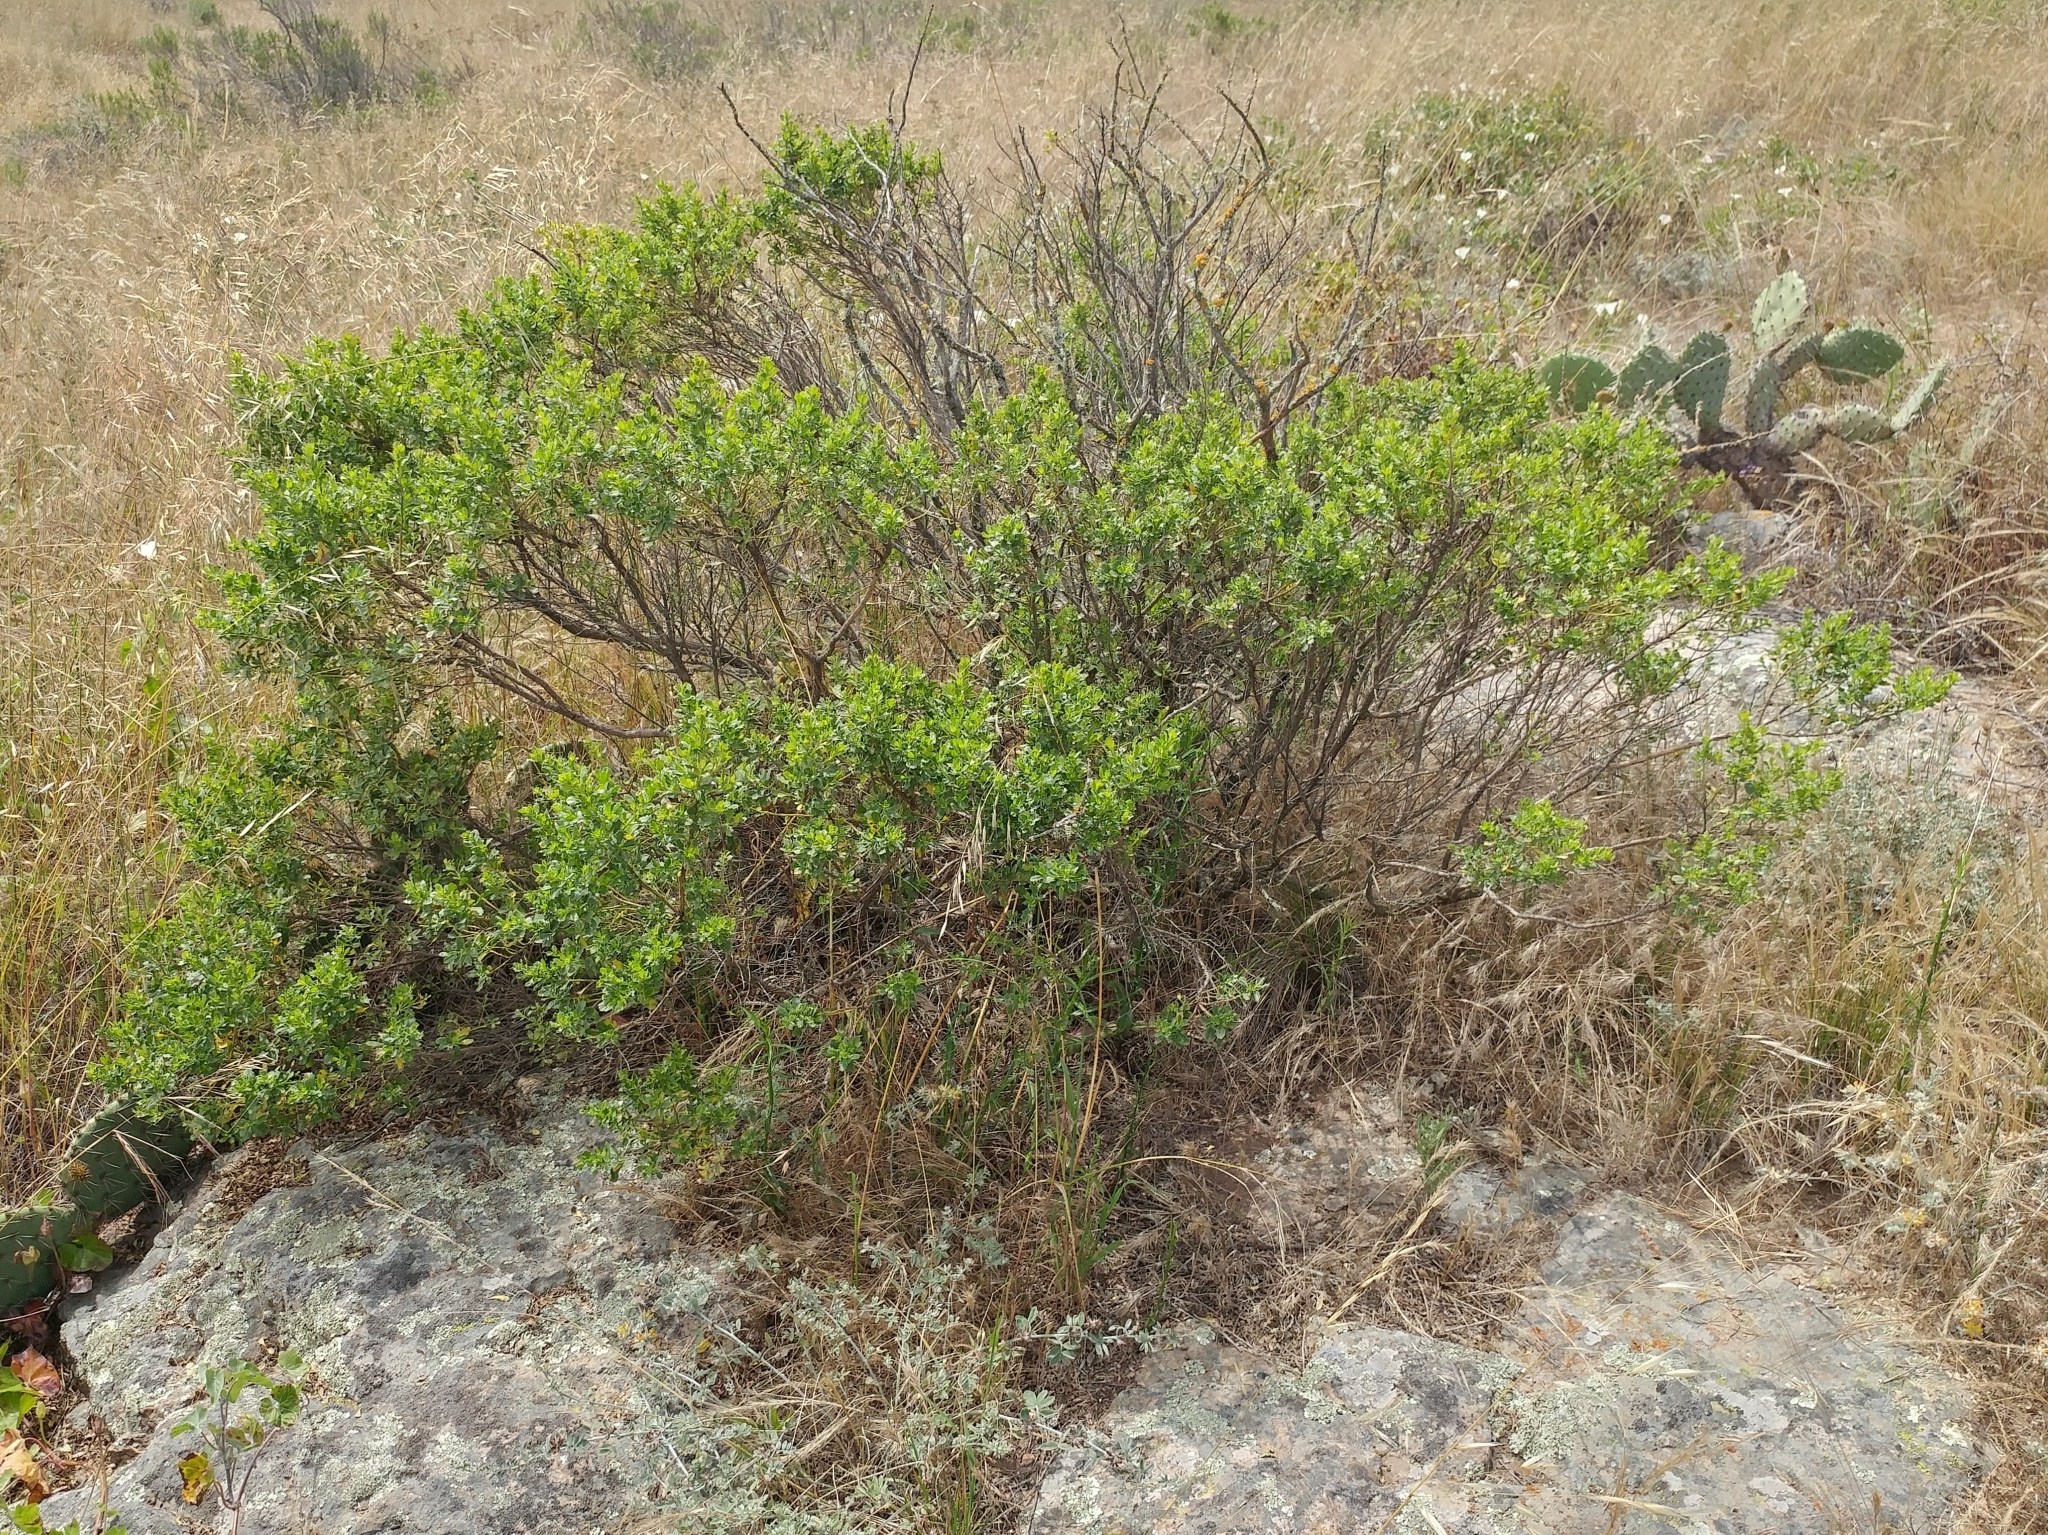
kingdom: Plantae
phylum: Tracheophyta
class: Magnoliopsida
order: Asterales
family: Asteraceae
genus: Baccharis
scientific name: Baccharis pilularis
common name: Coyotebrush
